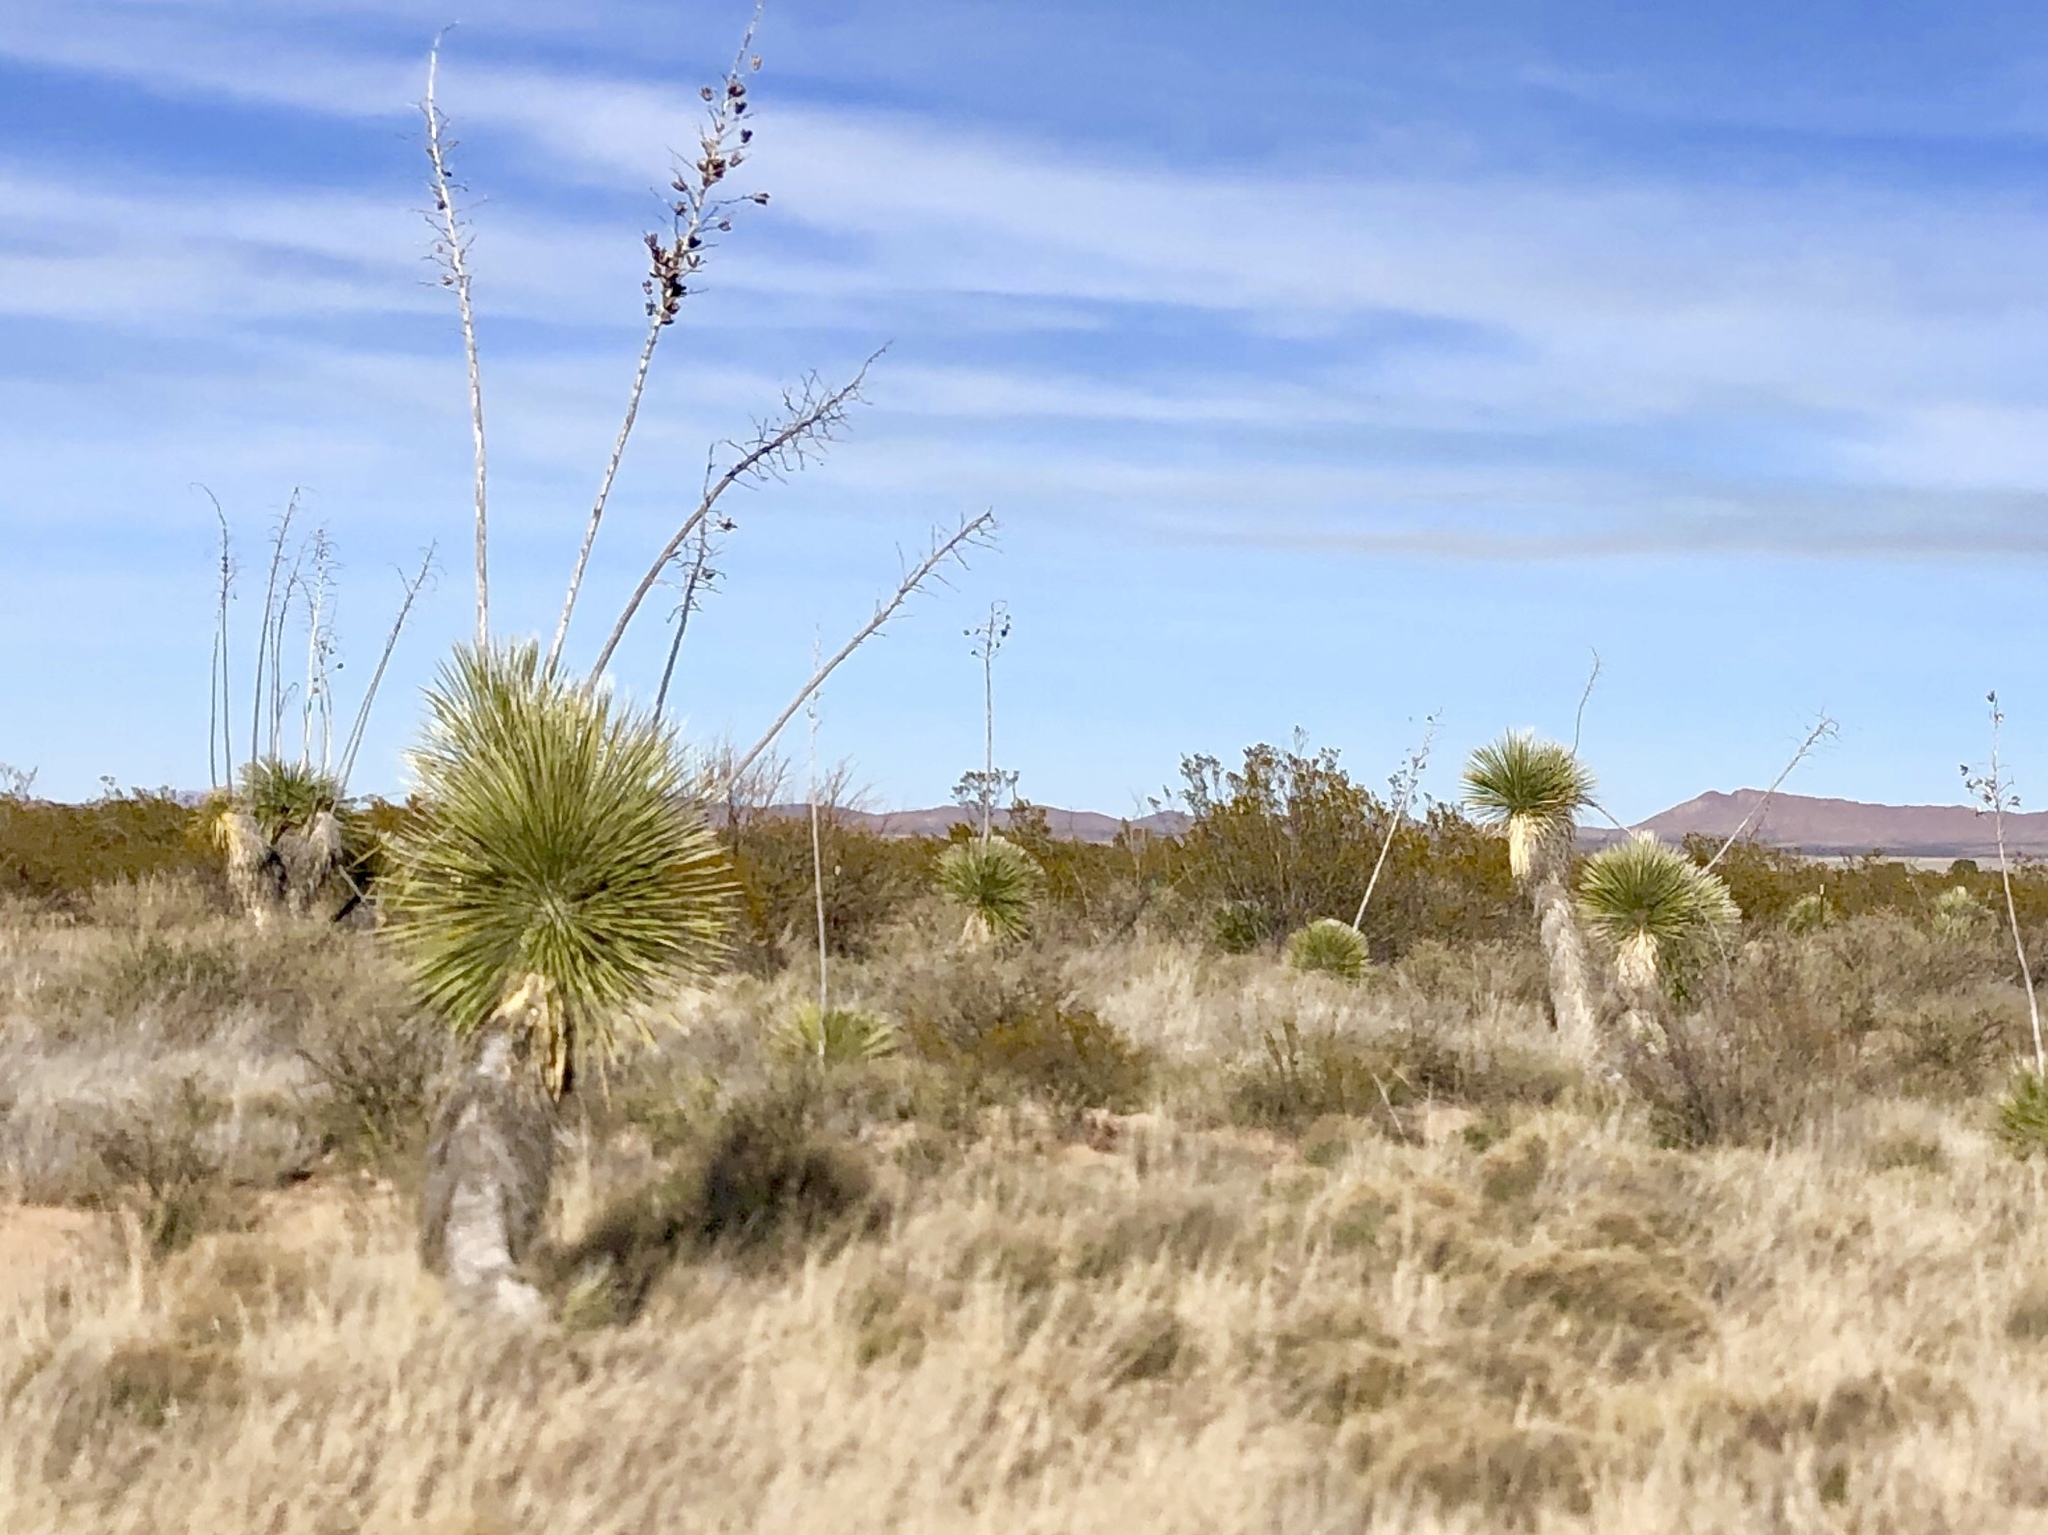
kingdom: Plantae
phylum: Tracheophyta
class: Liliopsida
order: Asparagales
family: Asparagaceae
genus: Yucca
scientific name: Yucca elata
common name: Palmella
